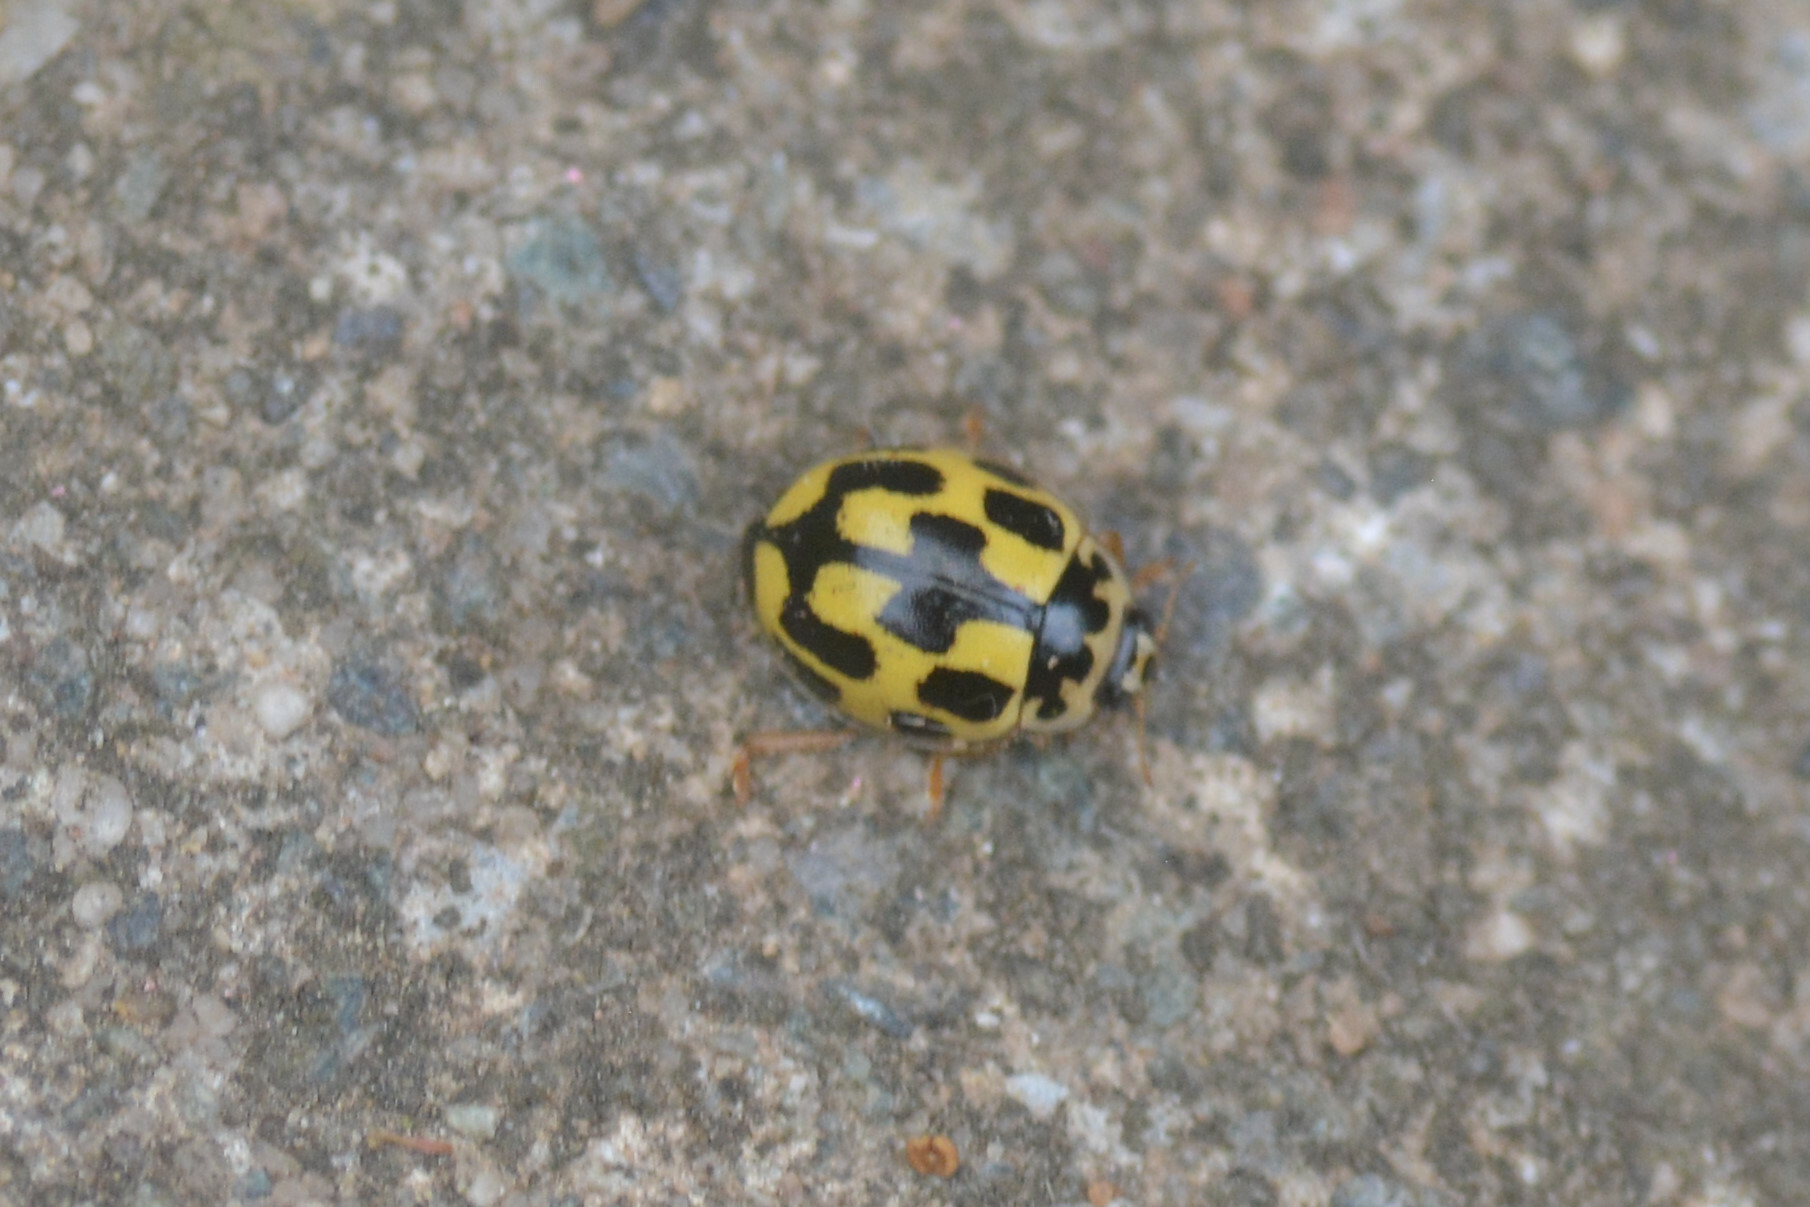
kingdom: Animalia
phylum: Arthropoda
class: Insecta
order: Coleoptera
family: Coccinellidae
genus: Propylaea
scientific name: Propylaea quatuordecimpunctata
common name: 14-spotted ladybird beetle
